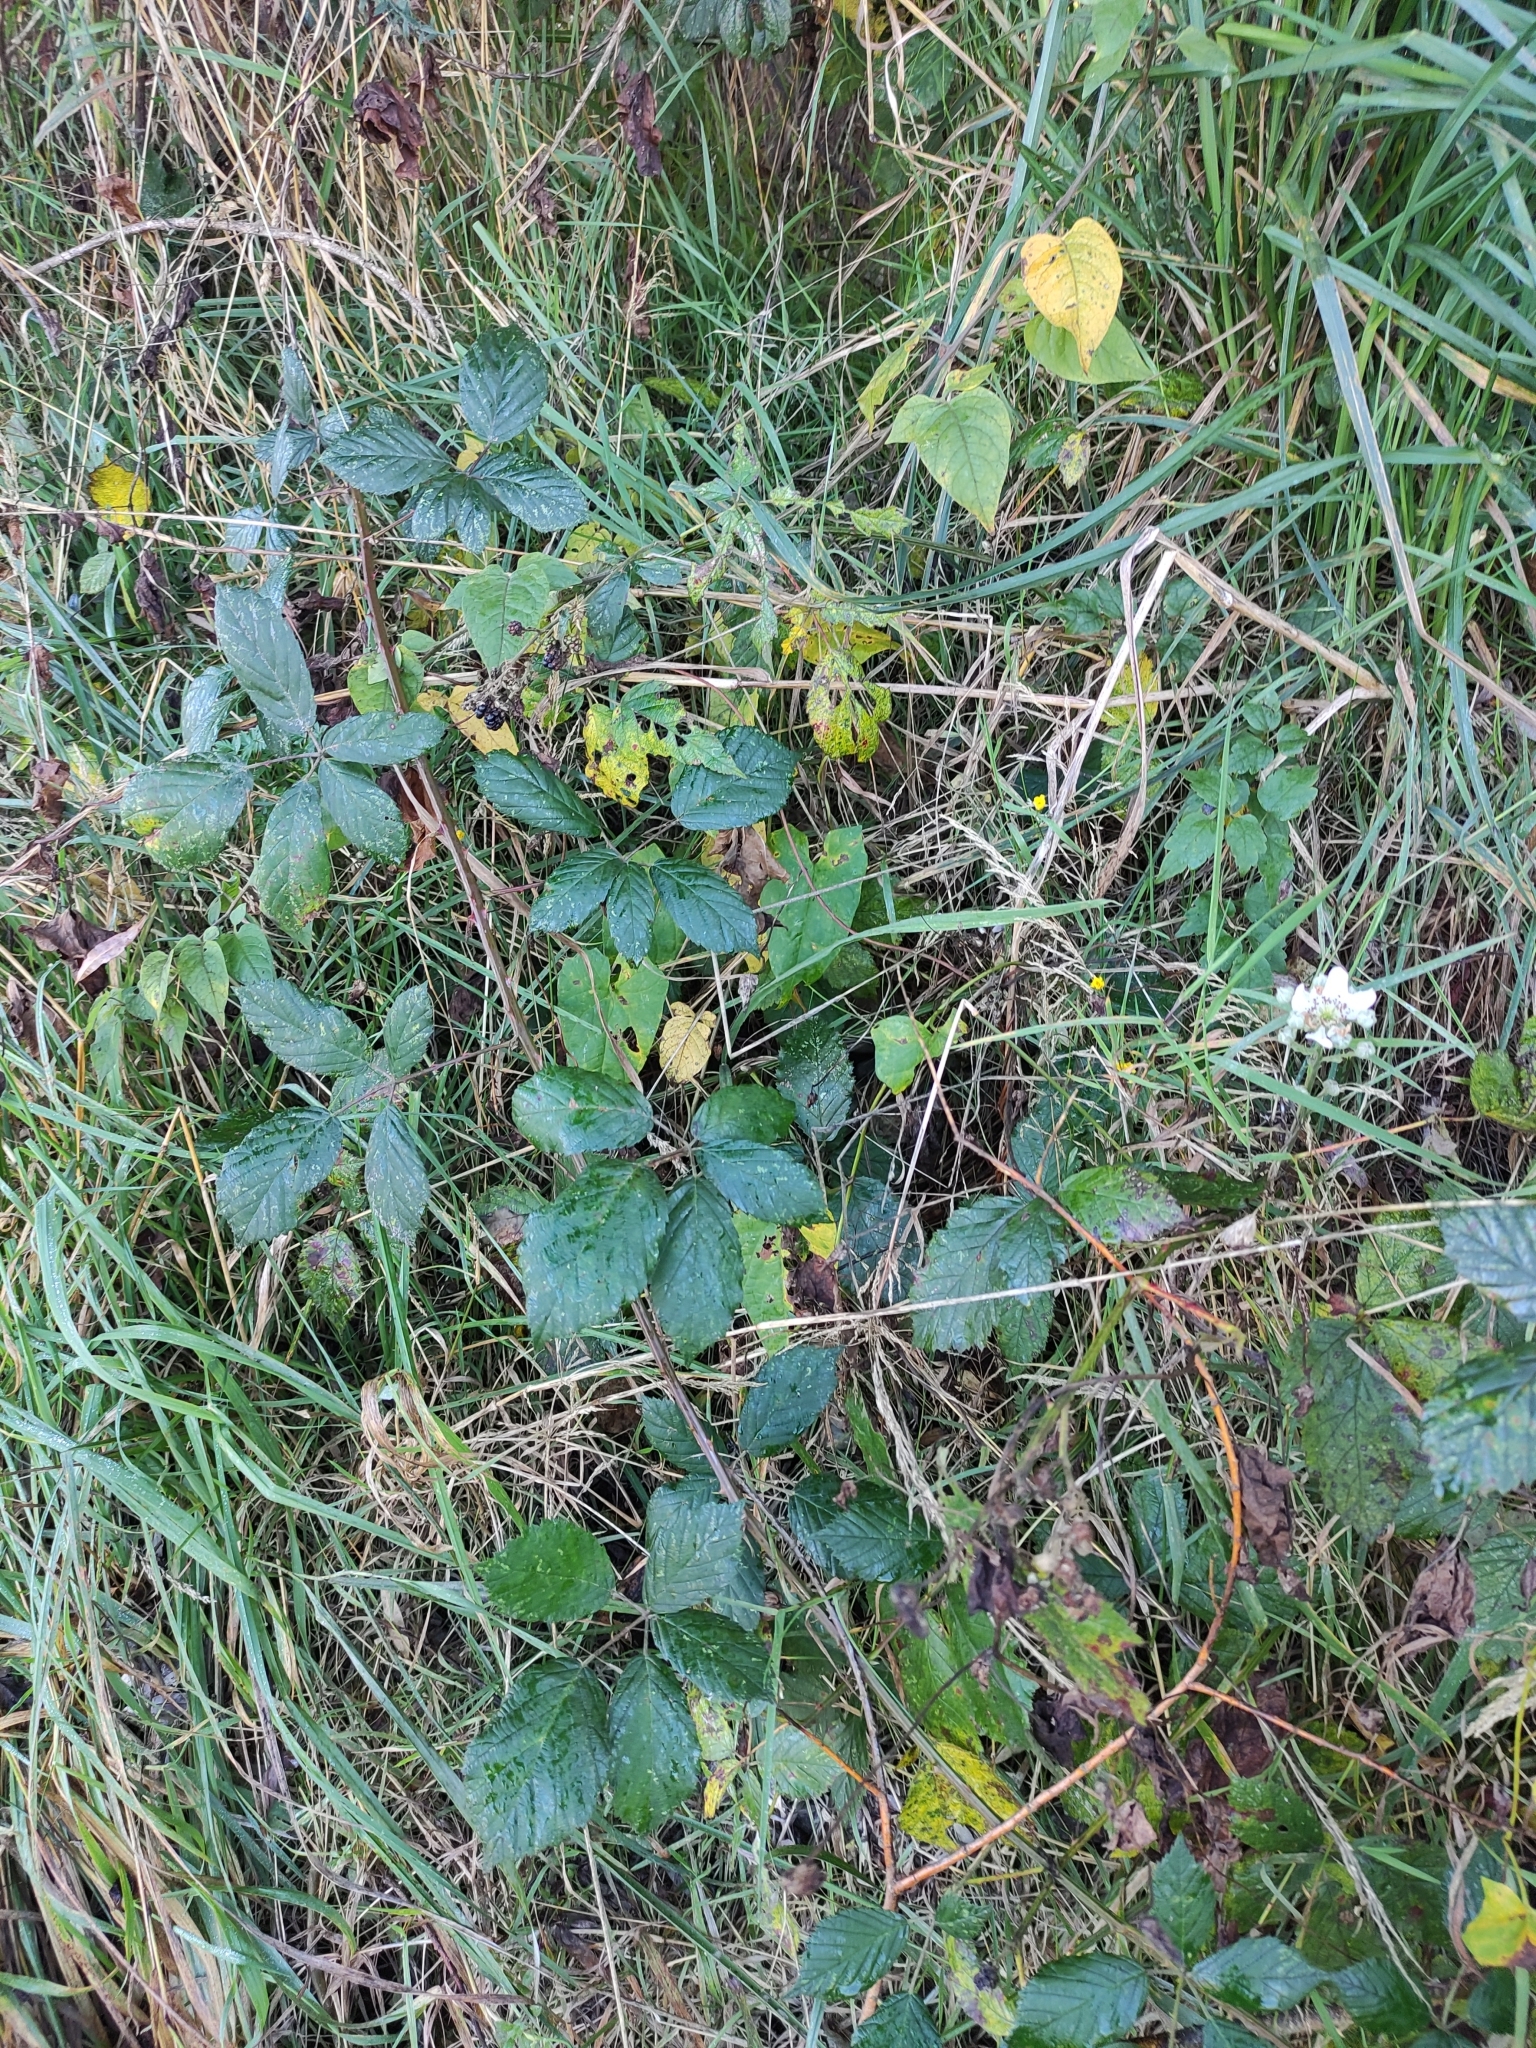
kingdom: Plantae
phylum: Tracheophyta
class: Magnoliopsida
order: Rosales
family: Rosaceae
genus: Rubus
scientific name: Rubus fruticosus
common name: Blackberry, bramble
